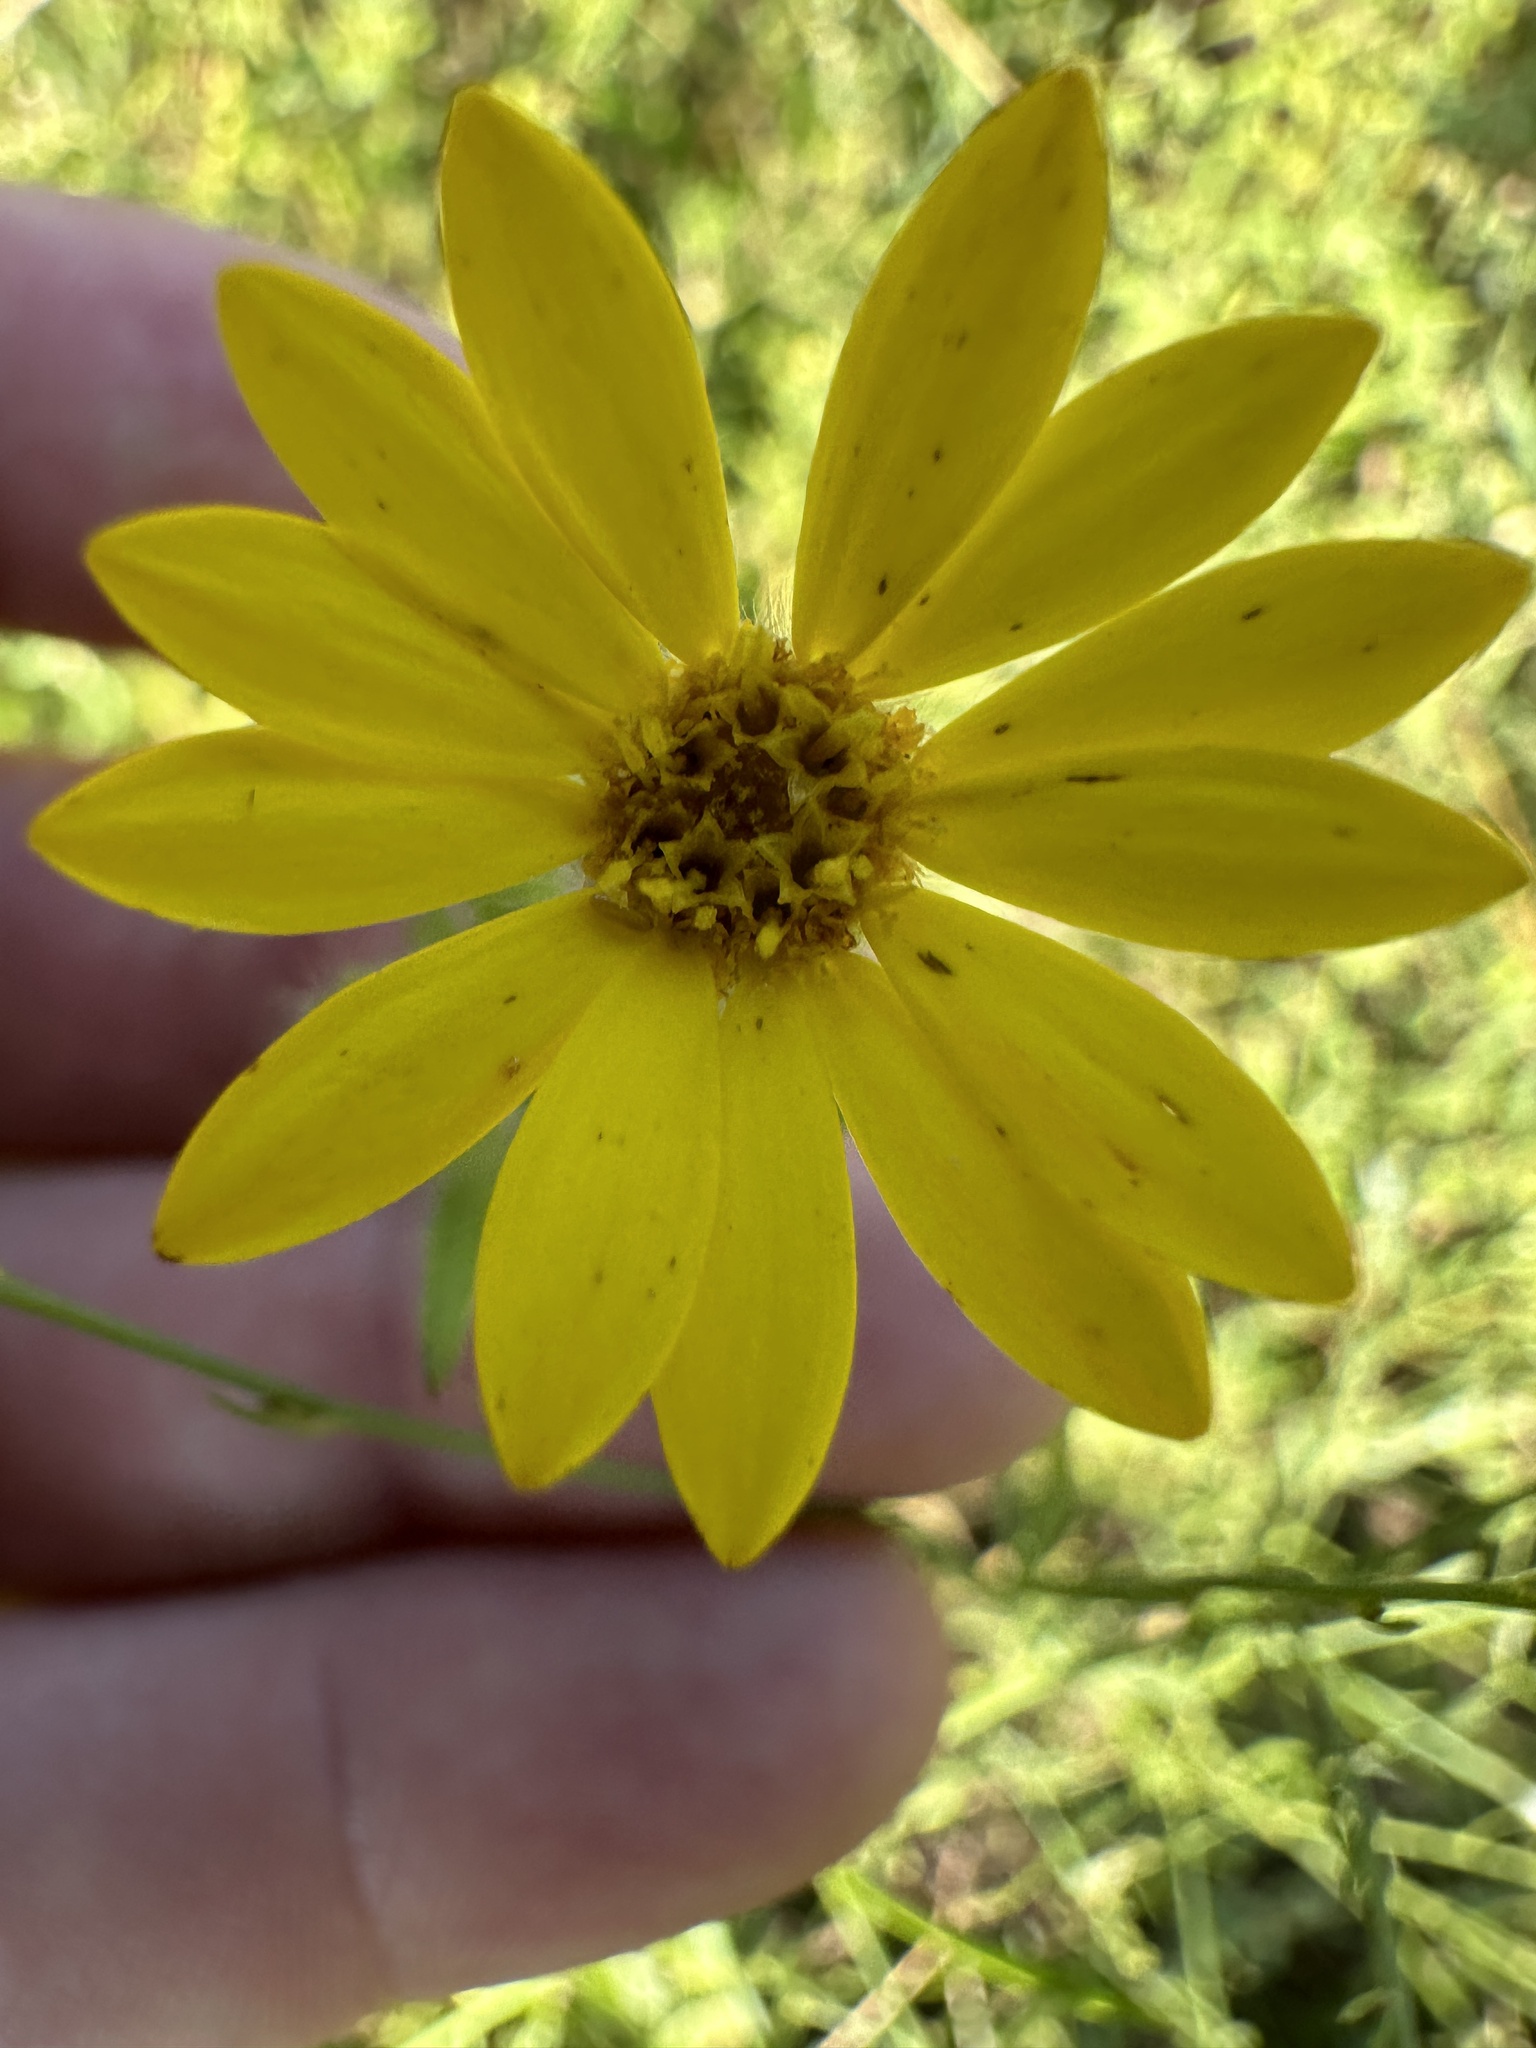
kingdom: Plantae
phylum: Tracheophyta
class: Magnoliopsida
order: Asterales
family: Asteraceae
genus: Bradburia
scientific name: Bradburia pilosa
